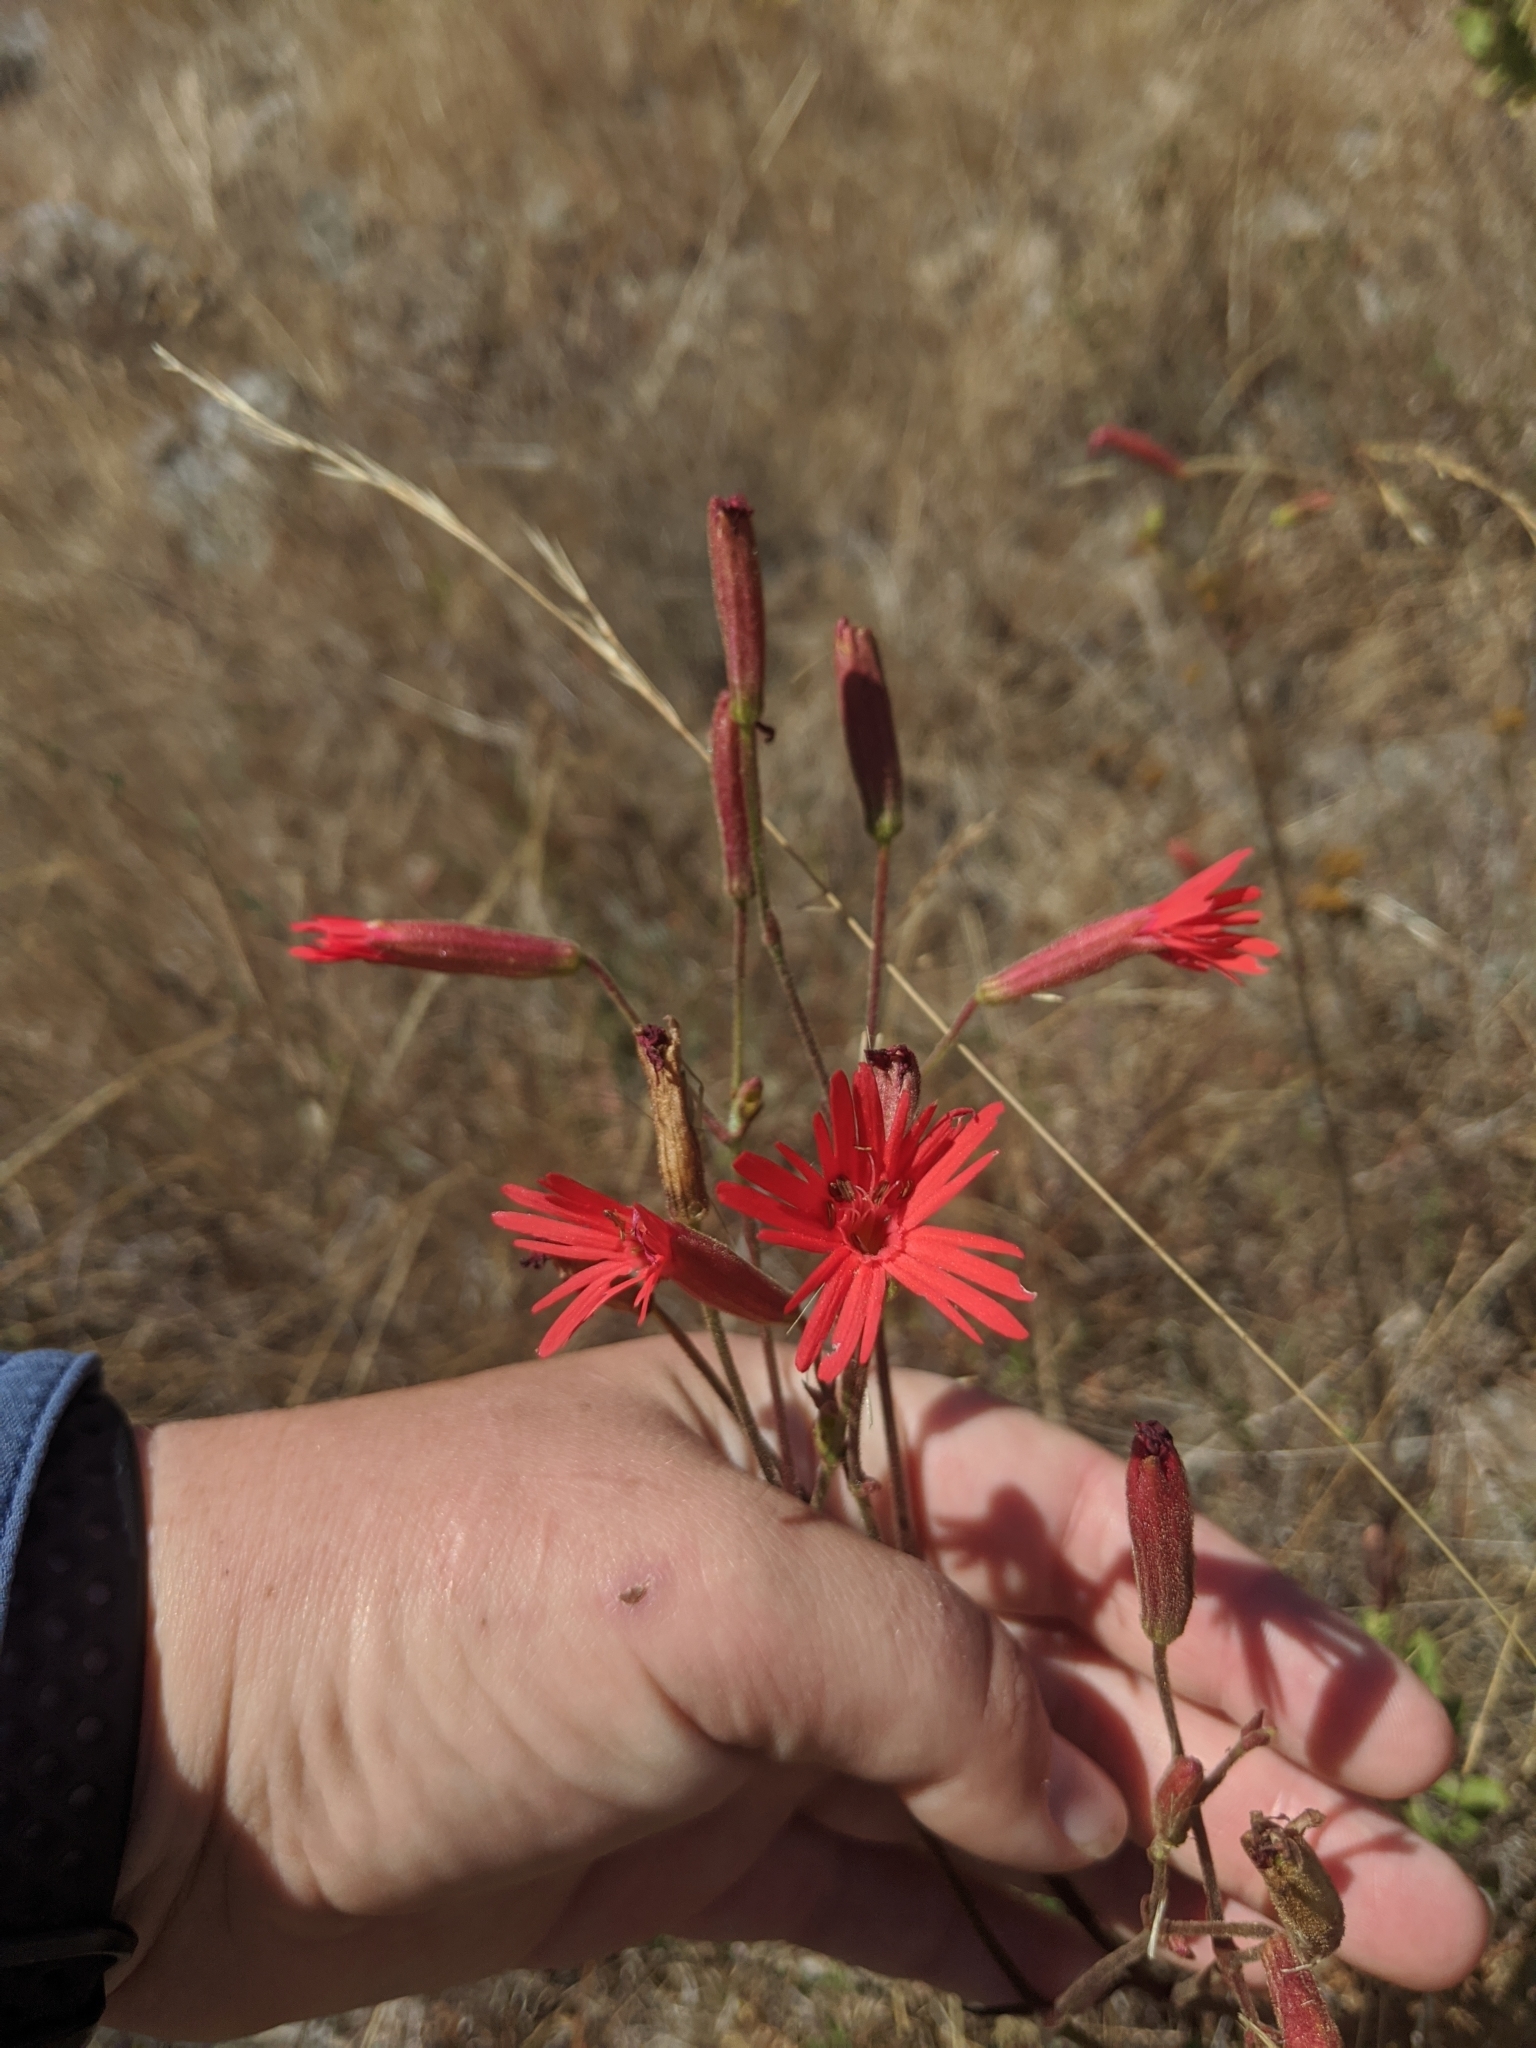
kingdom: Plantae
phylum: Tracheophyta
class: Magnoliopsida
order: Caryophyllales
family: Caryophyllaceae
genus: Silene
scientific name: Silene laciniata
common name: Indian-pink
